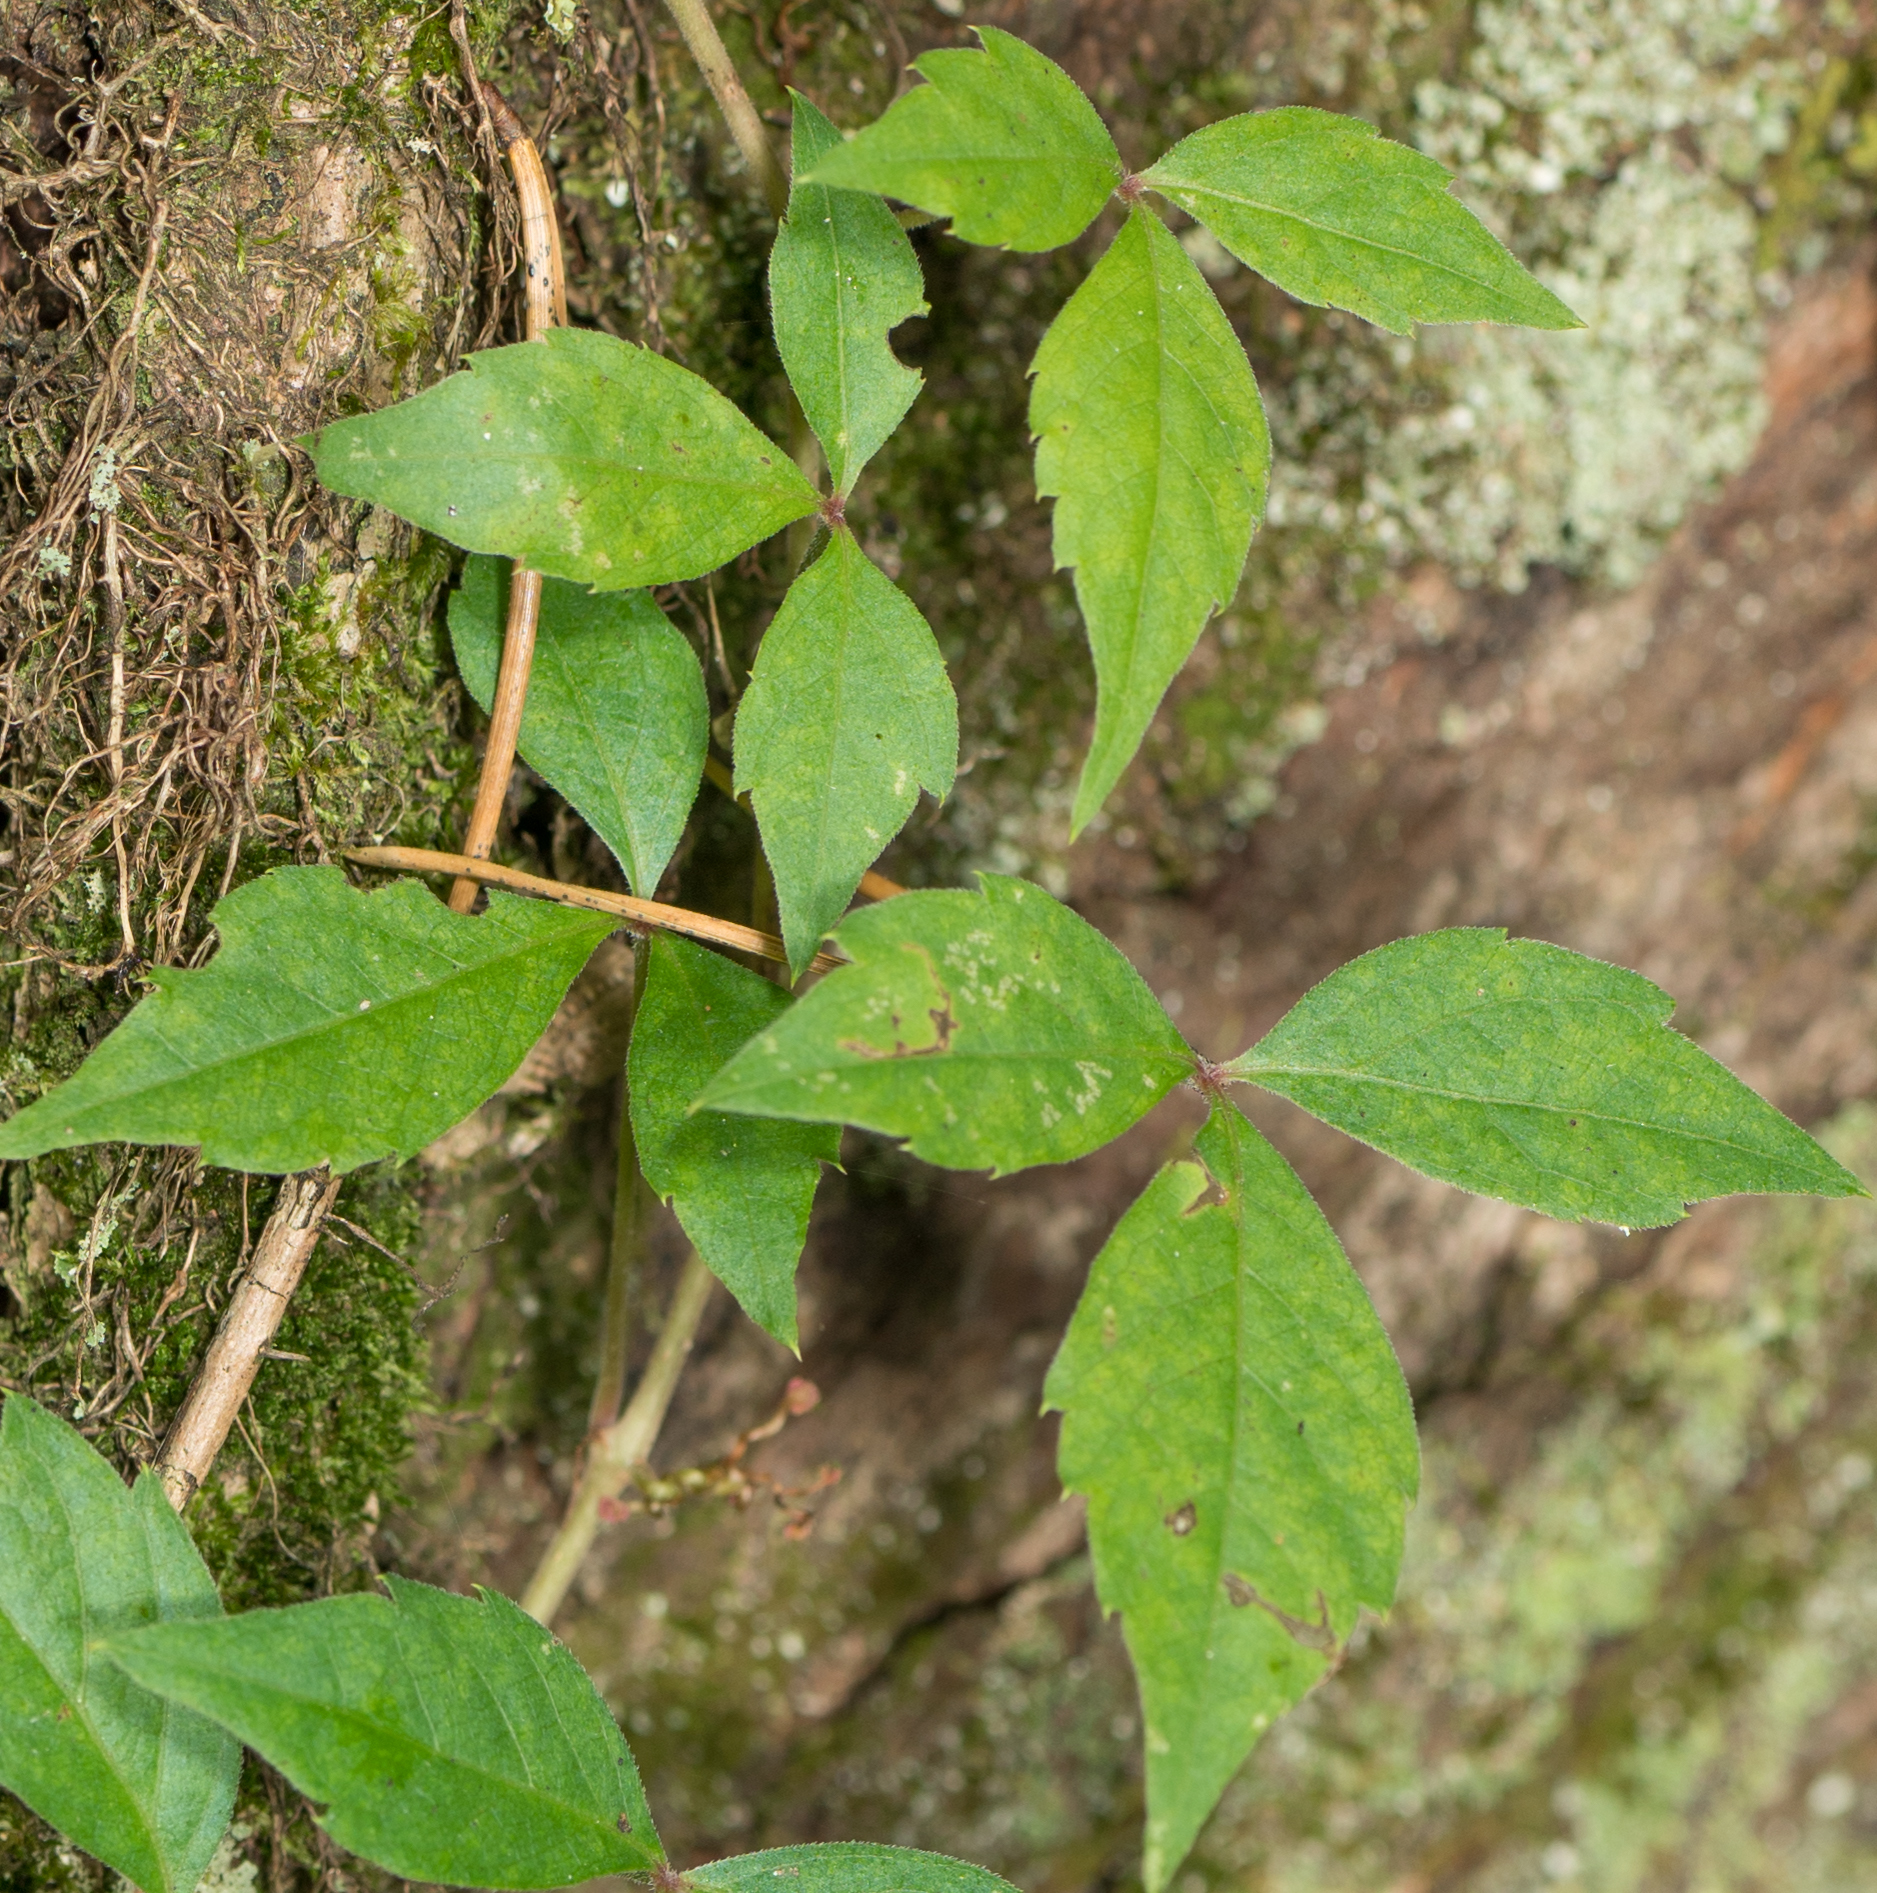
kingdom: Plantae
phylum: Tracheophyta
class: Magnoliopsida
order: Vitales
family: Vitaceae
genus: Parthenocissus
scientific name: Parthenocissus quinquefolia
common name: Virginia-creeper
